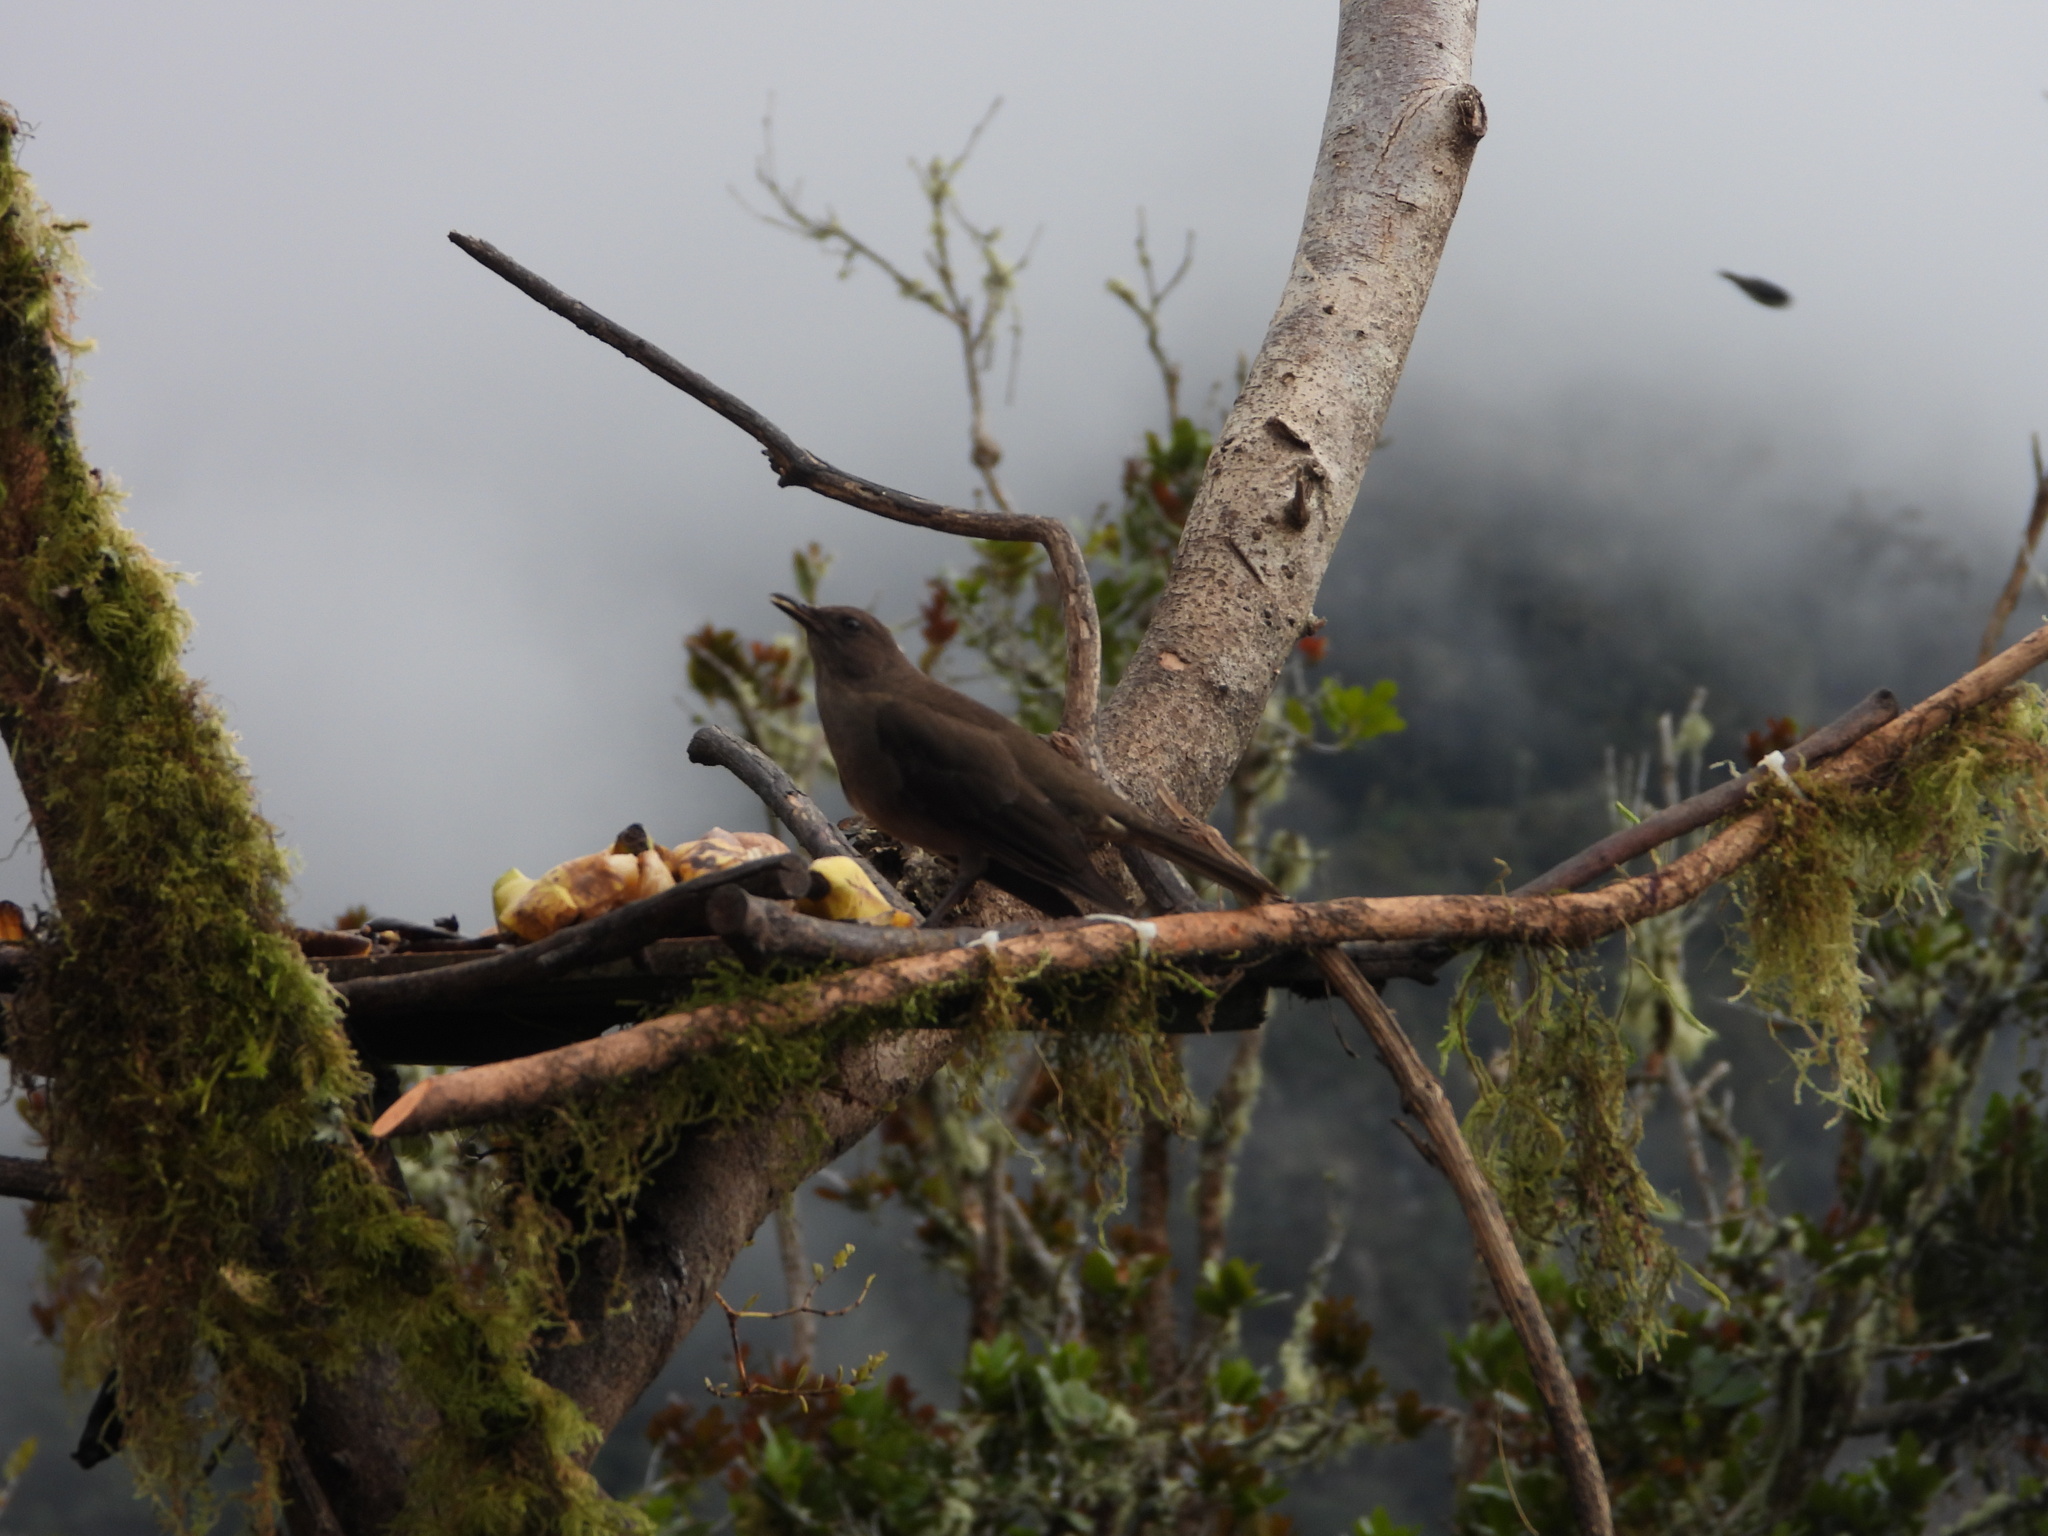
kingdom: Animalia
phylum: Chordata
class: Aves
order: Passeriformes
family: Turdidae
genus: Turdus
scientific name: Turdus plebejus
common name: Mountain thrush
